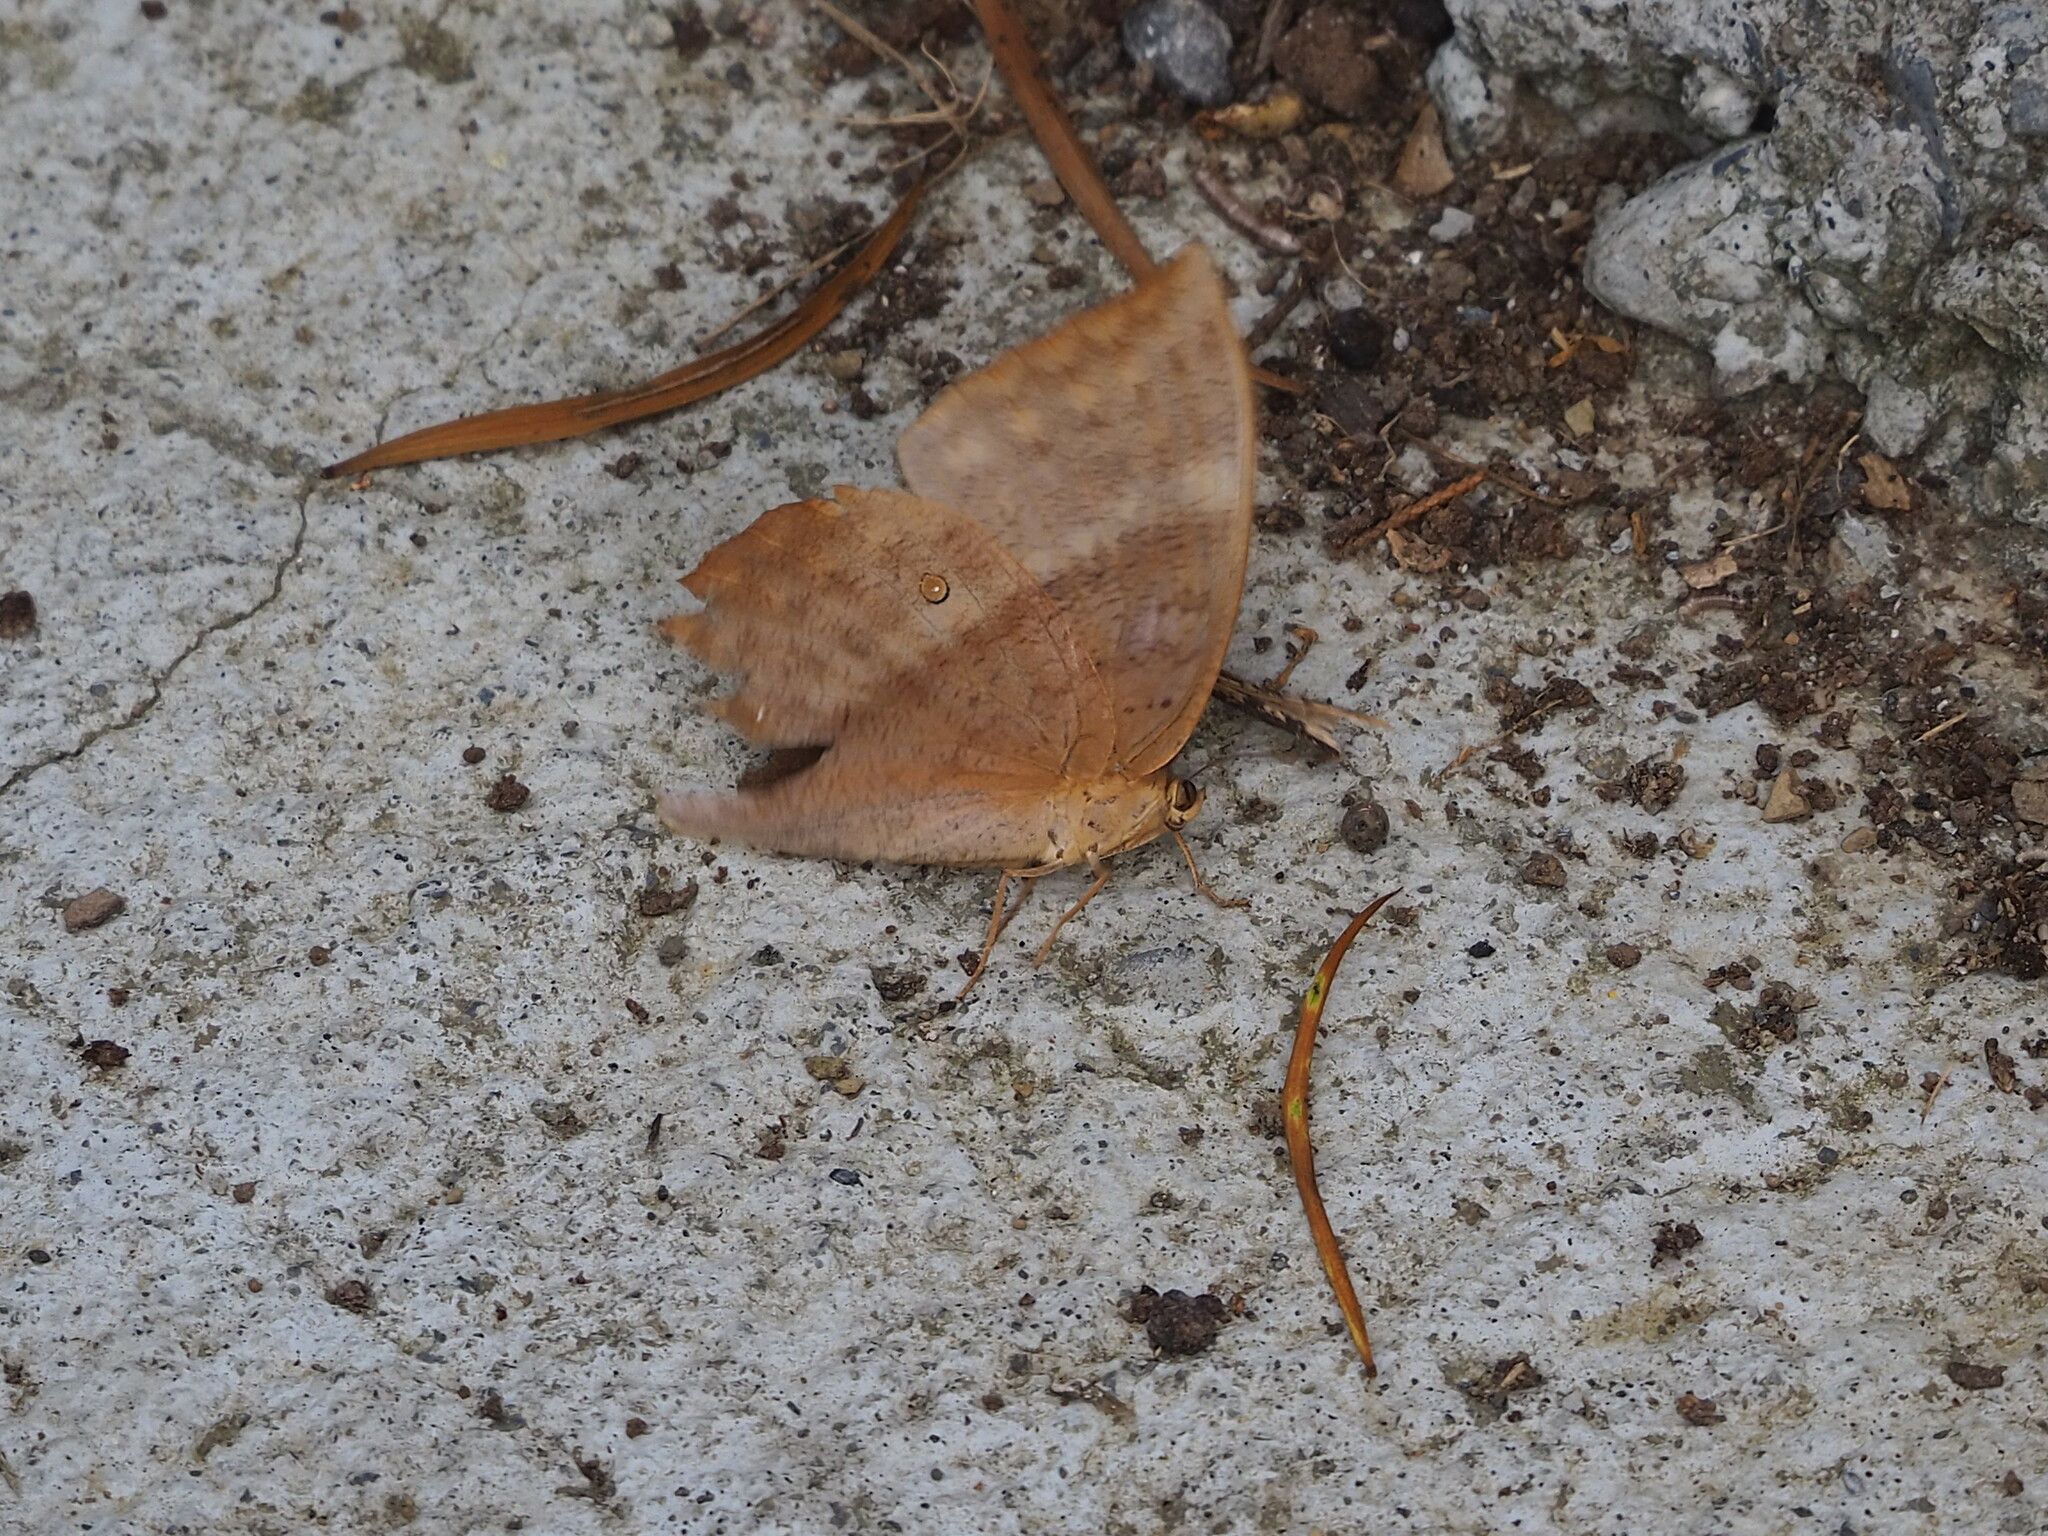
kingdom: Animalia
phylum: Arthropoda
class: Insecta
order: Lepidoptera
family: Nymphalidae
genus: Discophora
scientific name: Discophora sondaica
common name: Common duffer
